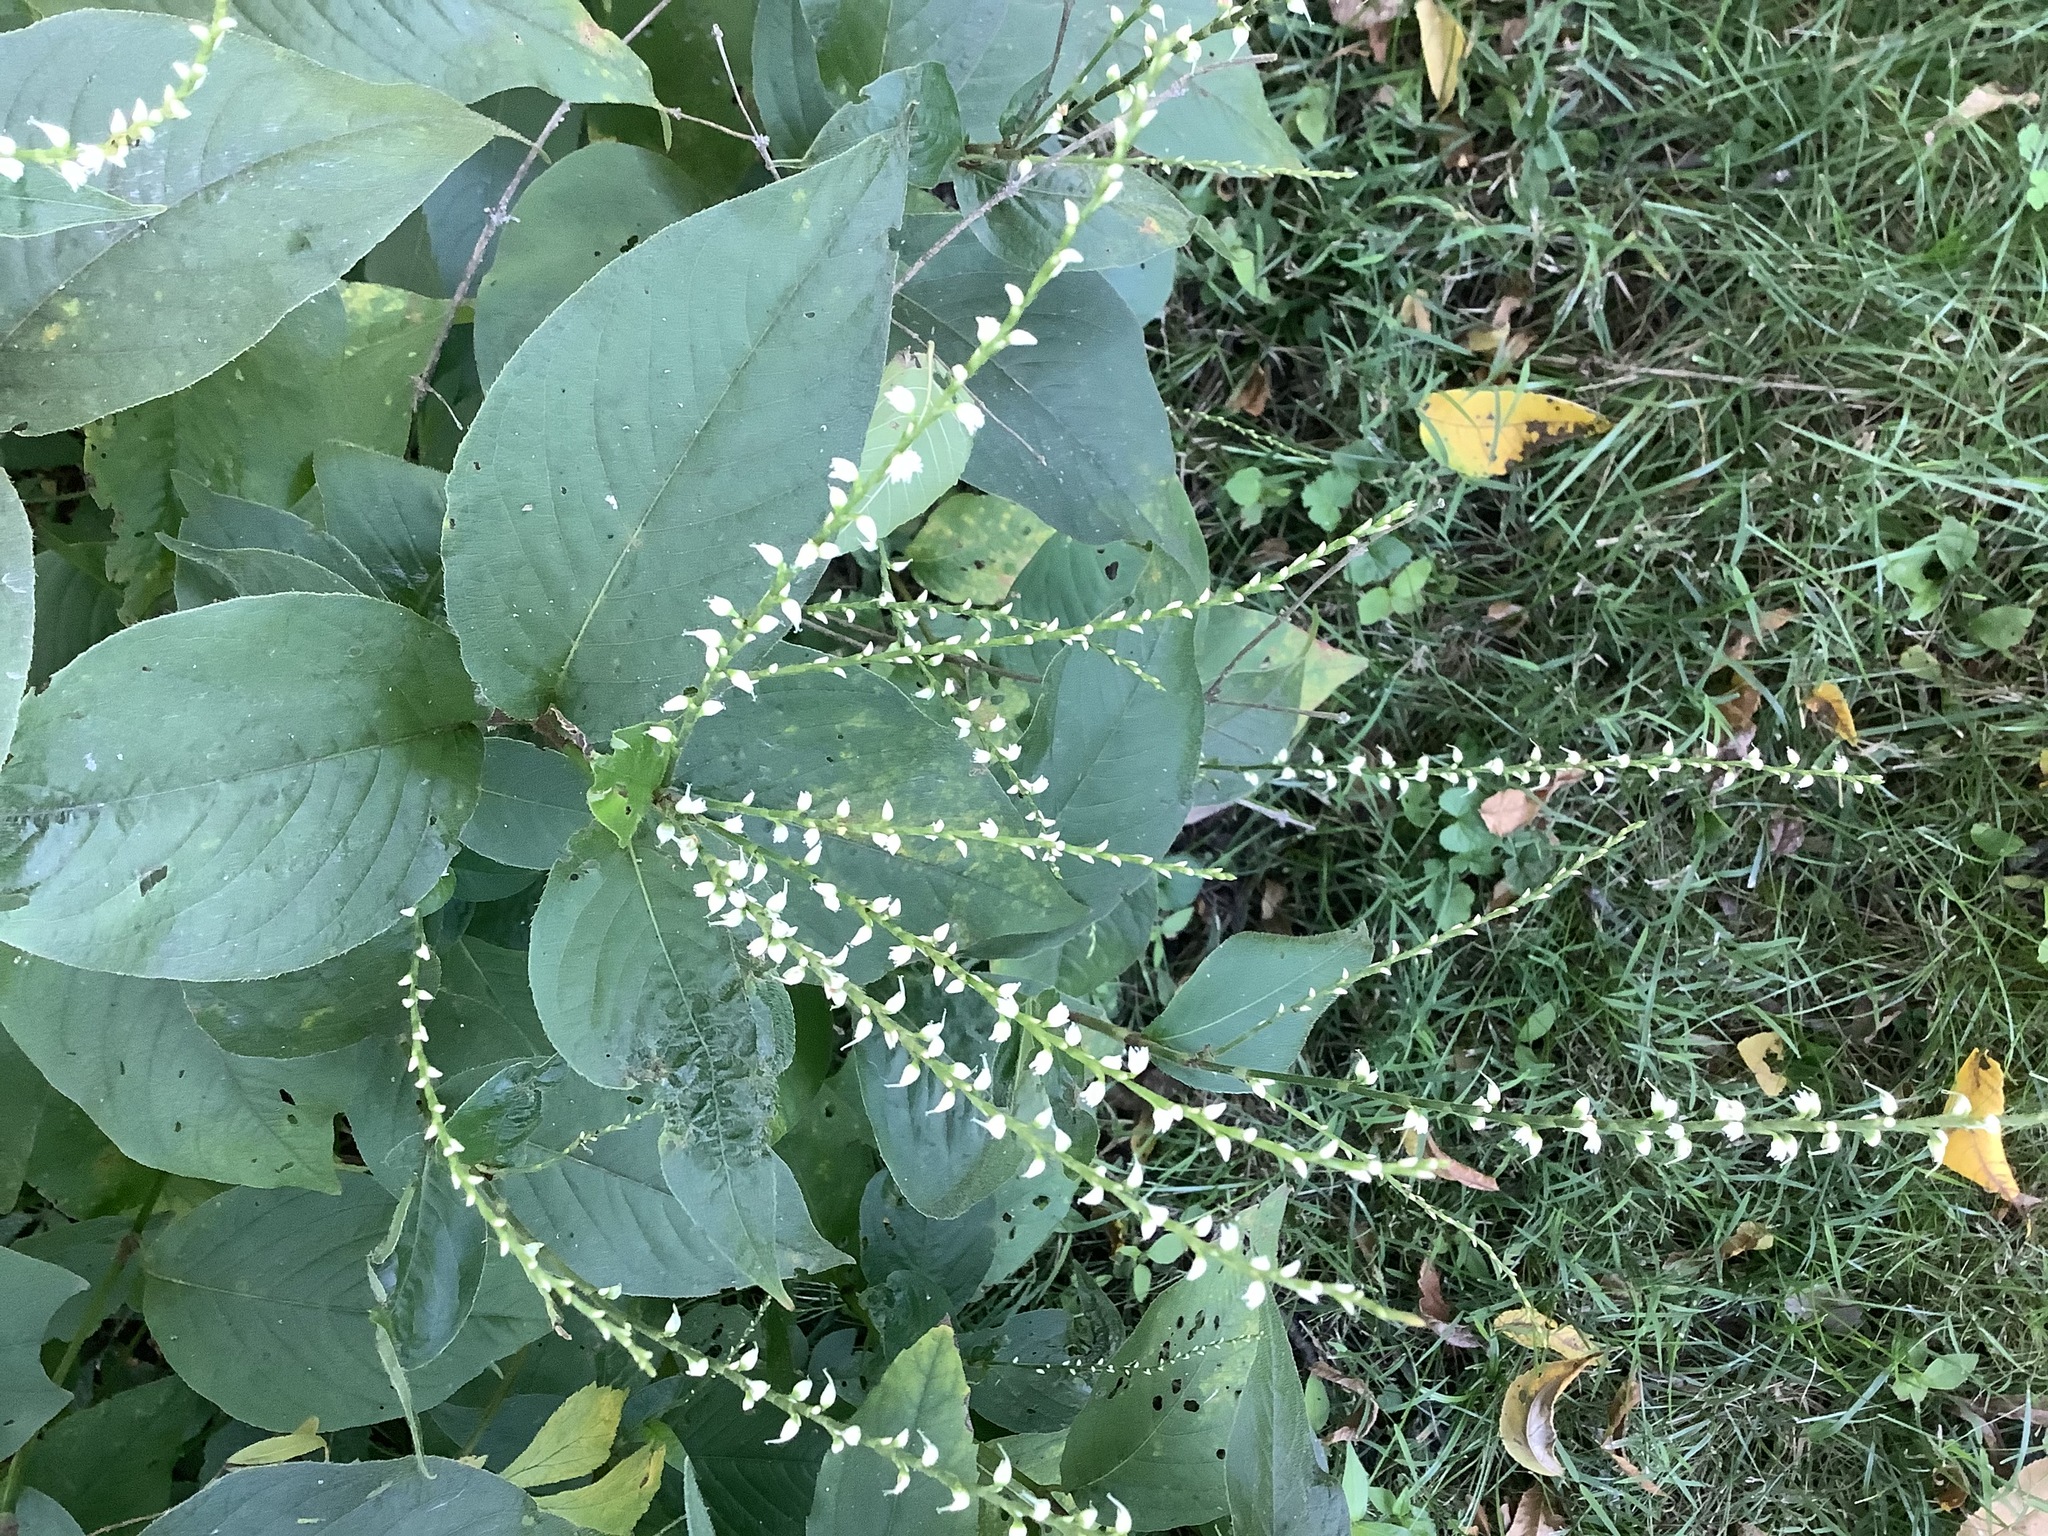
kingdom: Plantae
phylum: Tracheophyta
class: Magnoliopsida
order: Caryophyllales
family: Polygonaceae
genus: Persicaria
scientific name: Persicaria virginiana
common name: Jumpseed
